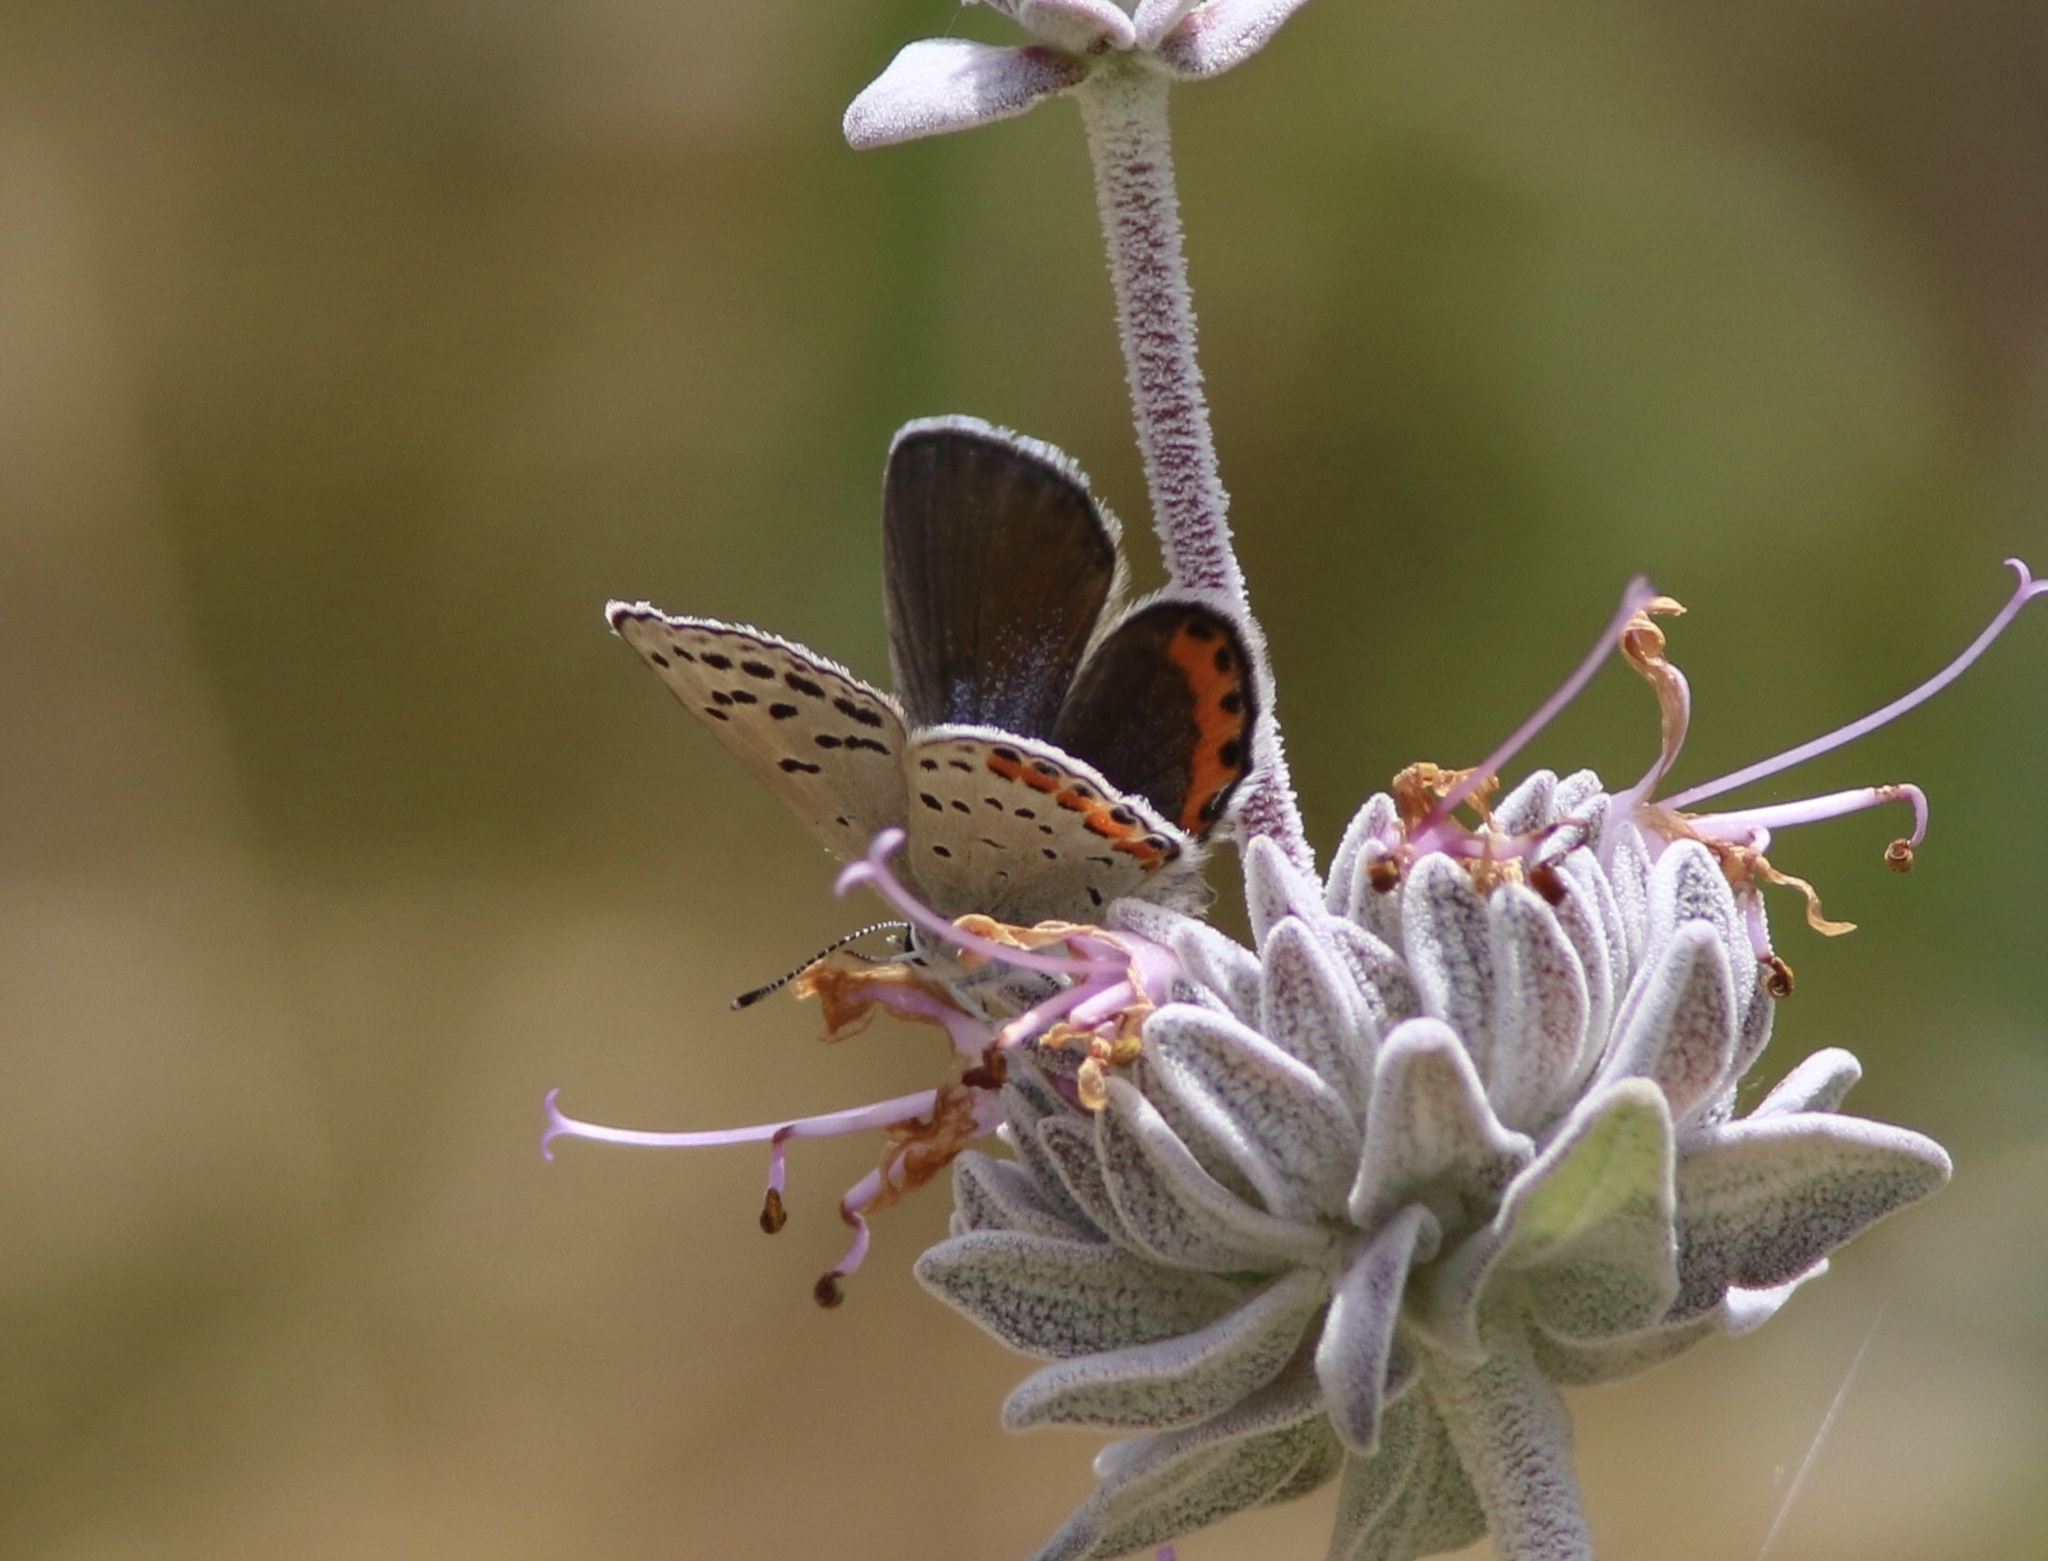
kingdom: Animalia
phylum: Arthropoda
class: Insecta
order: Lepidoptera
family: Lycaenidae
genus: Icaricia
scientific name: Icaricia acmon
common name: Acmon blue
